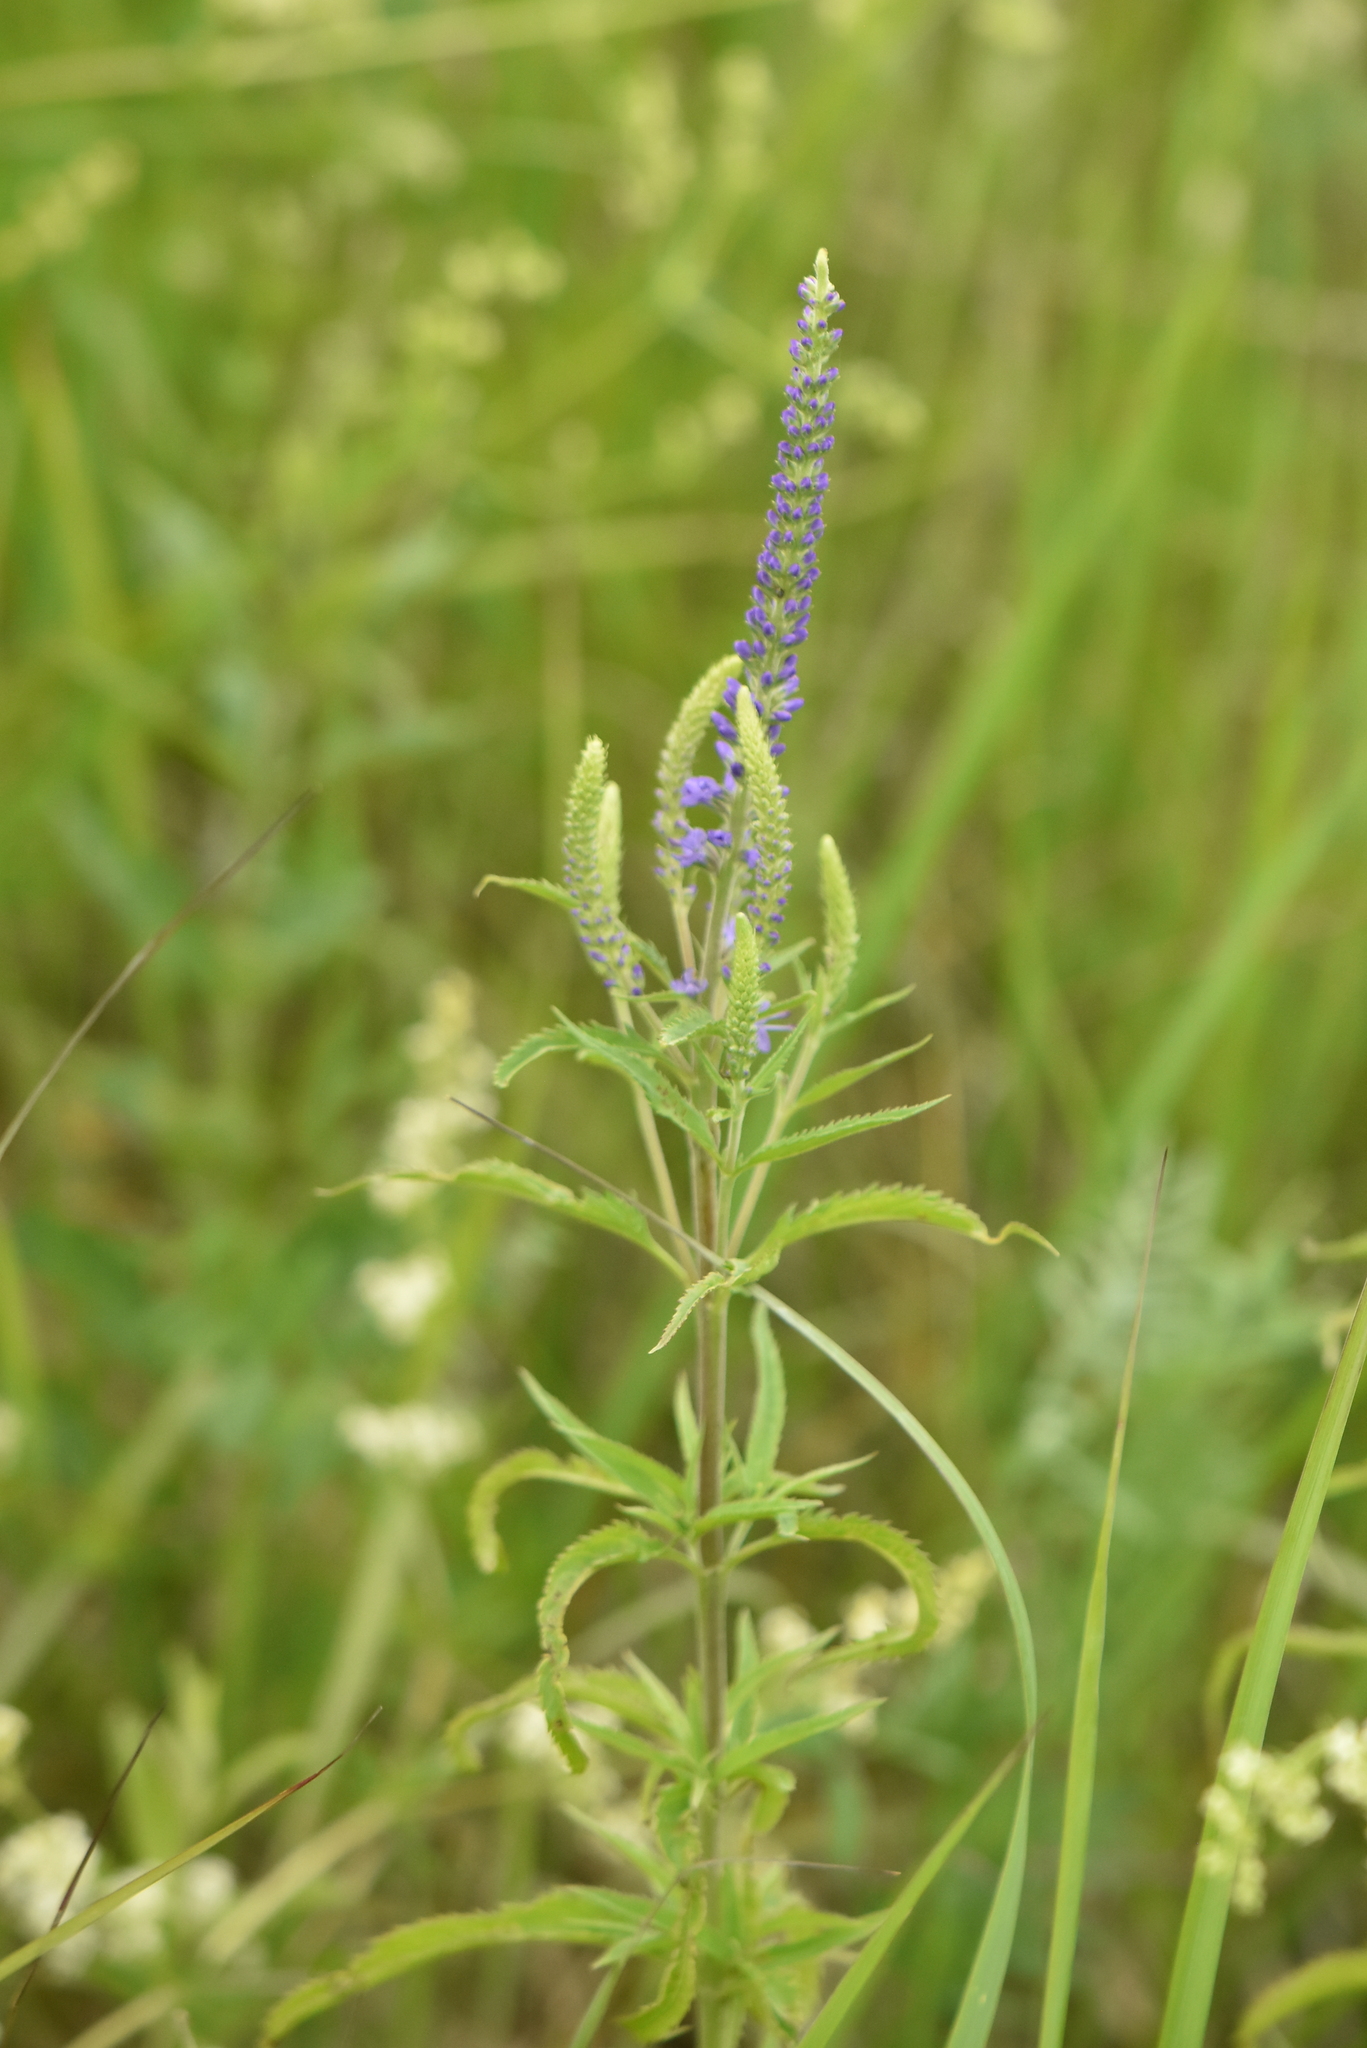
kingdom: Plantae
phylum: Tracheophyta
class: Magnoliopsida
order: Lamiales
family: Plantaginaceae
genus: Veronica
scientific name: Veronica longifolia
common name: Garden speedwell
